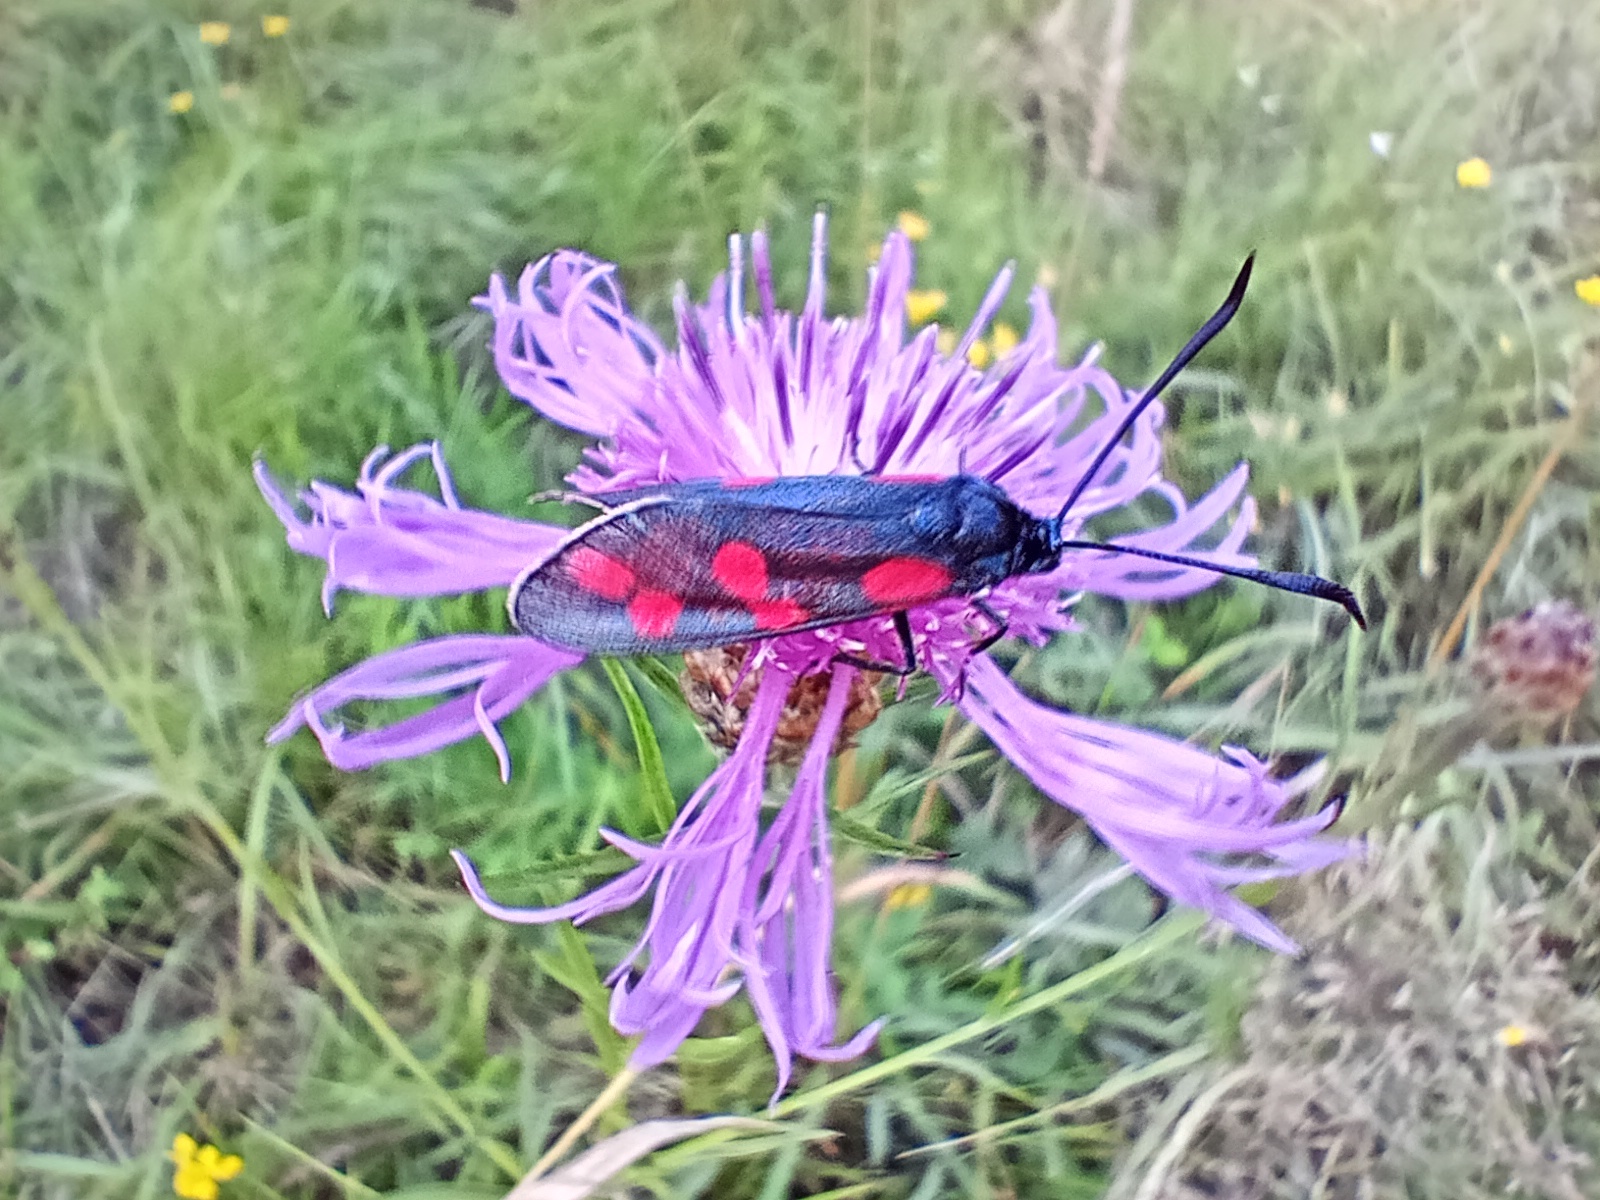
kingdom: Animalia
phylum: Arthropoda
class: Insecta
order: Lepidoptera
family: Zygaenidae
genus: Zygaena
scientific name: Zygaena filipendulae
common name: Six-spot burnet
